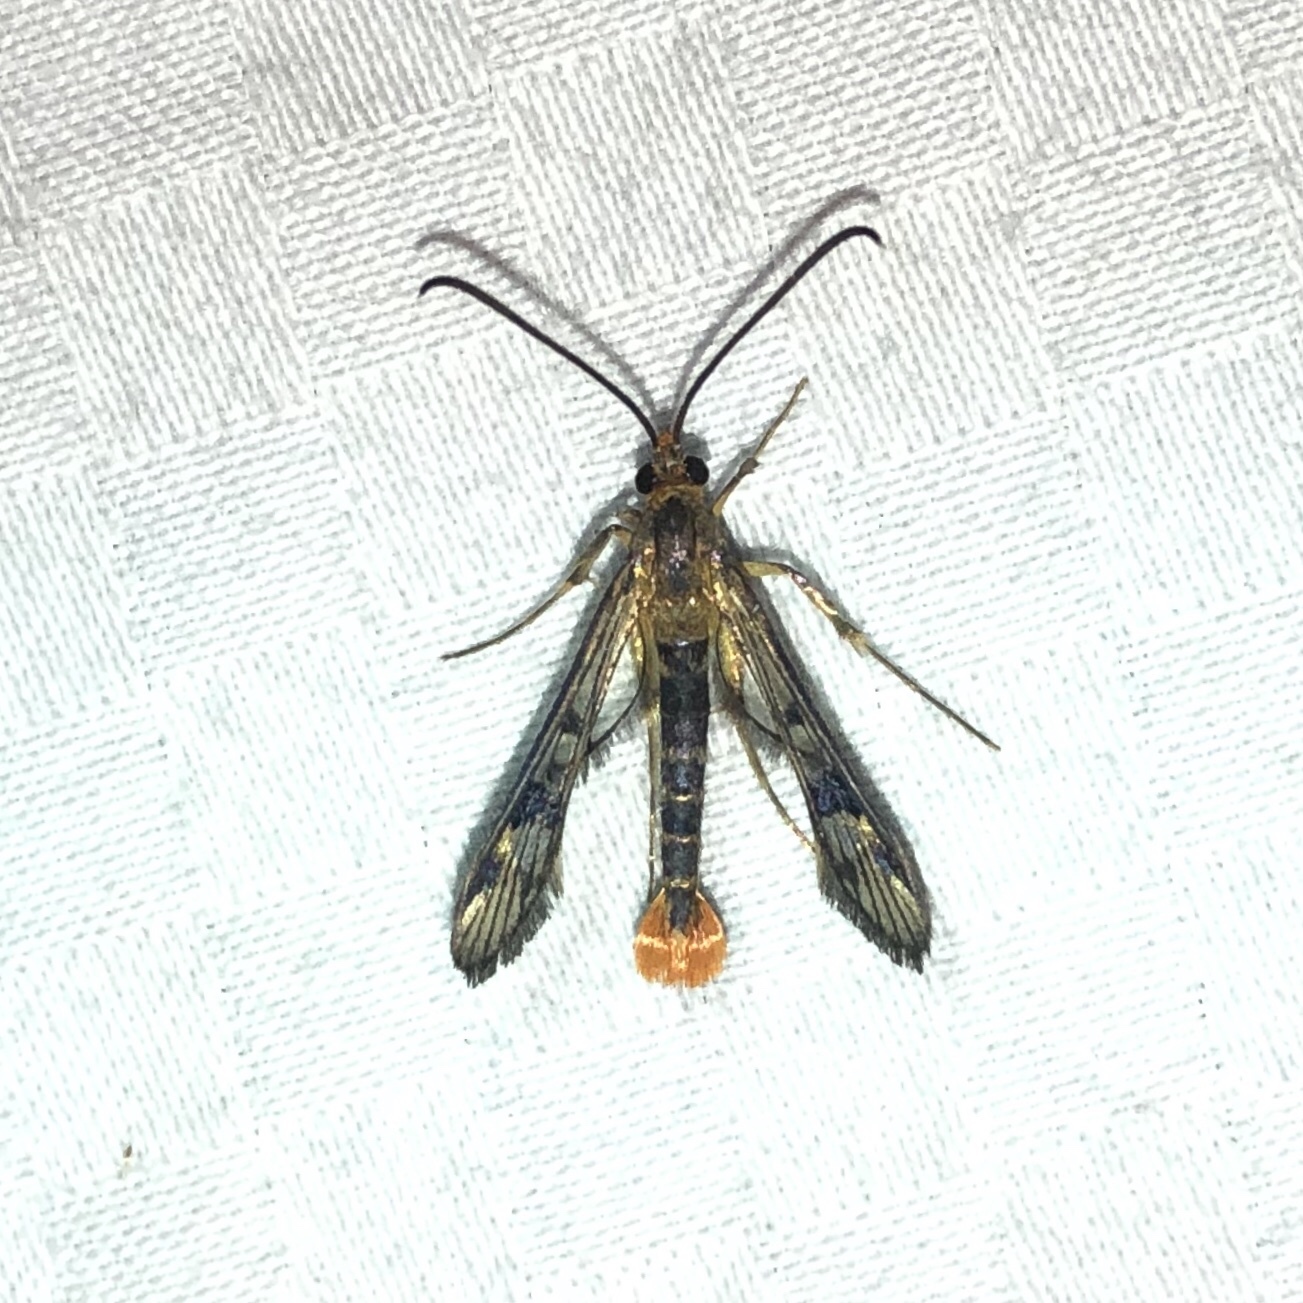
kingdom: Animalia
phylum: Arthropoda
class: Insecta
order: Lepidoptera
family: Sesiidae
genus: Synanthedon
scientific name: Synanthedon acerni
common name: Maple callus borer moth
